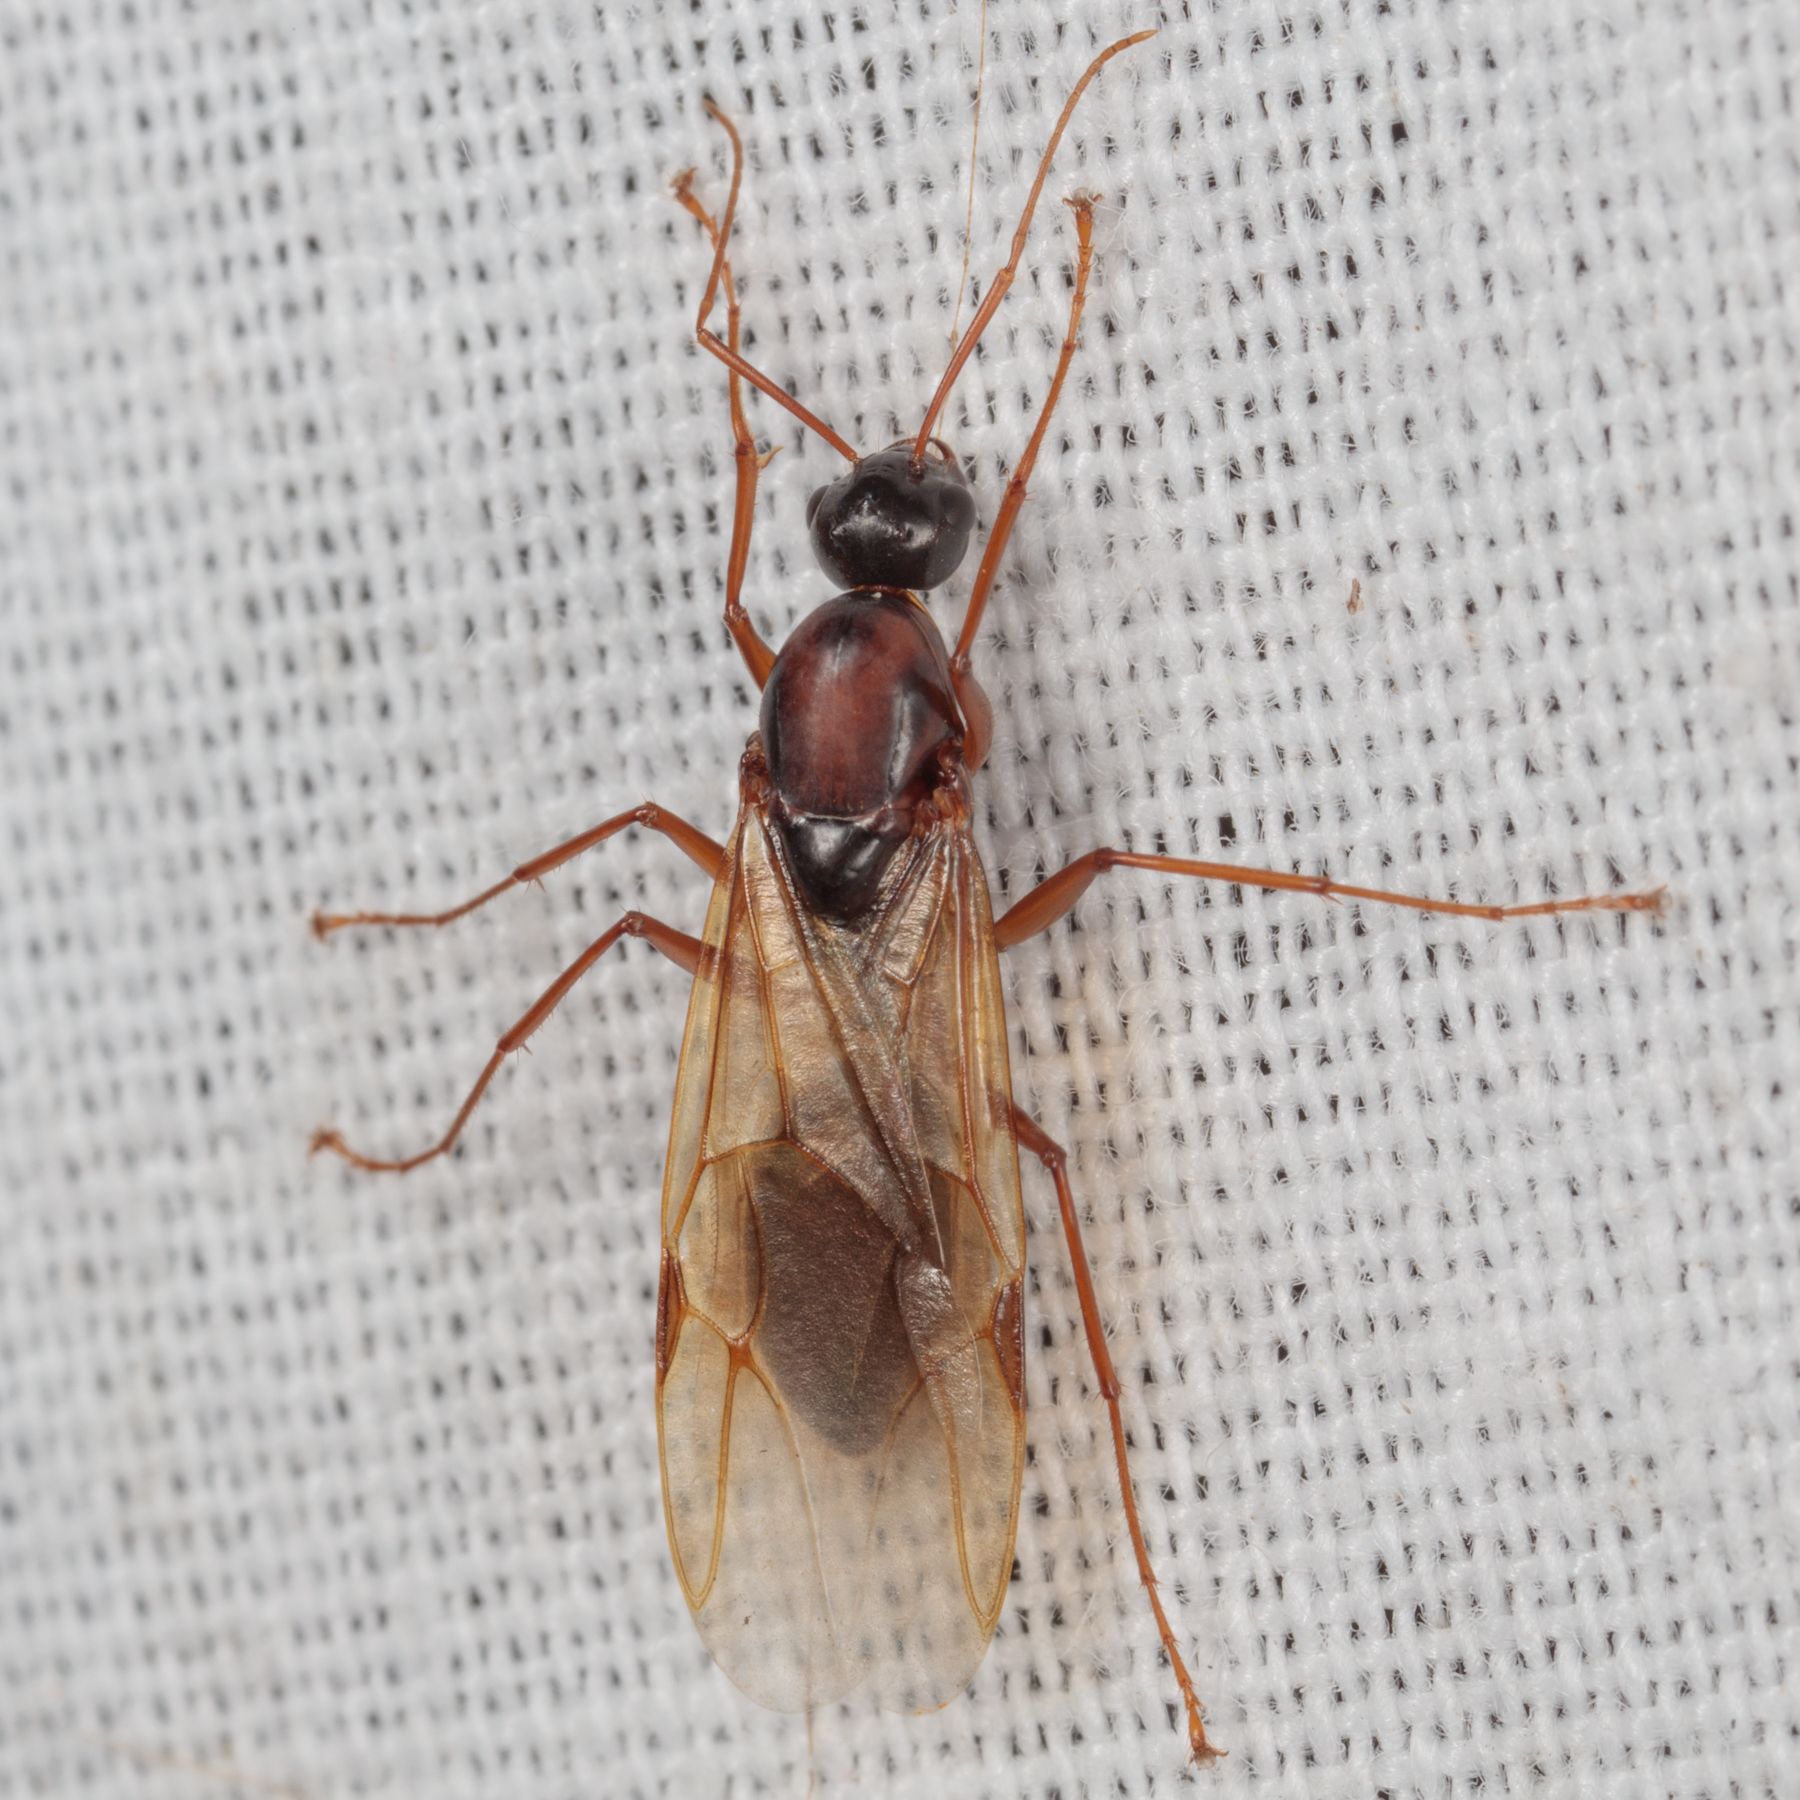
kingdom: Animalia
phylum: Arthropoda
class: Insecta
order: Hymenoptera
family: Formicidae
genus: Camponotus
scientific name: Camponotus texanus
